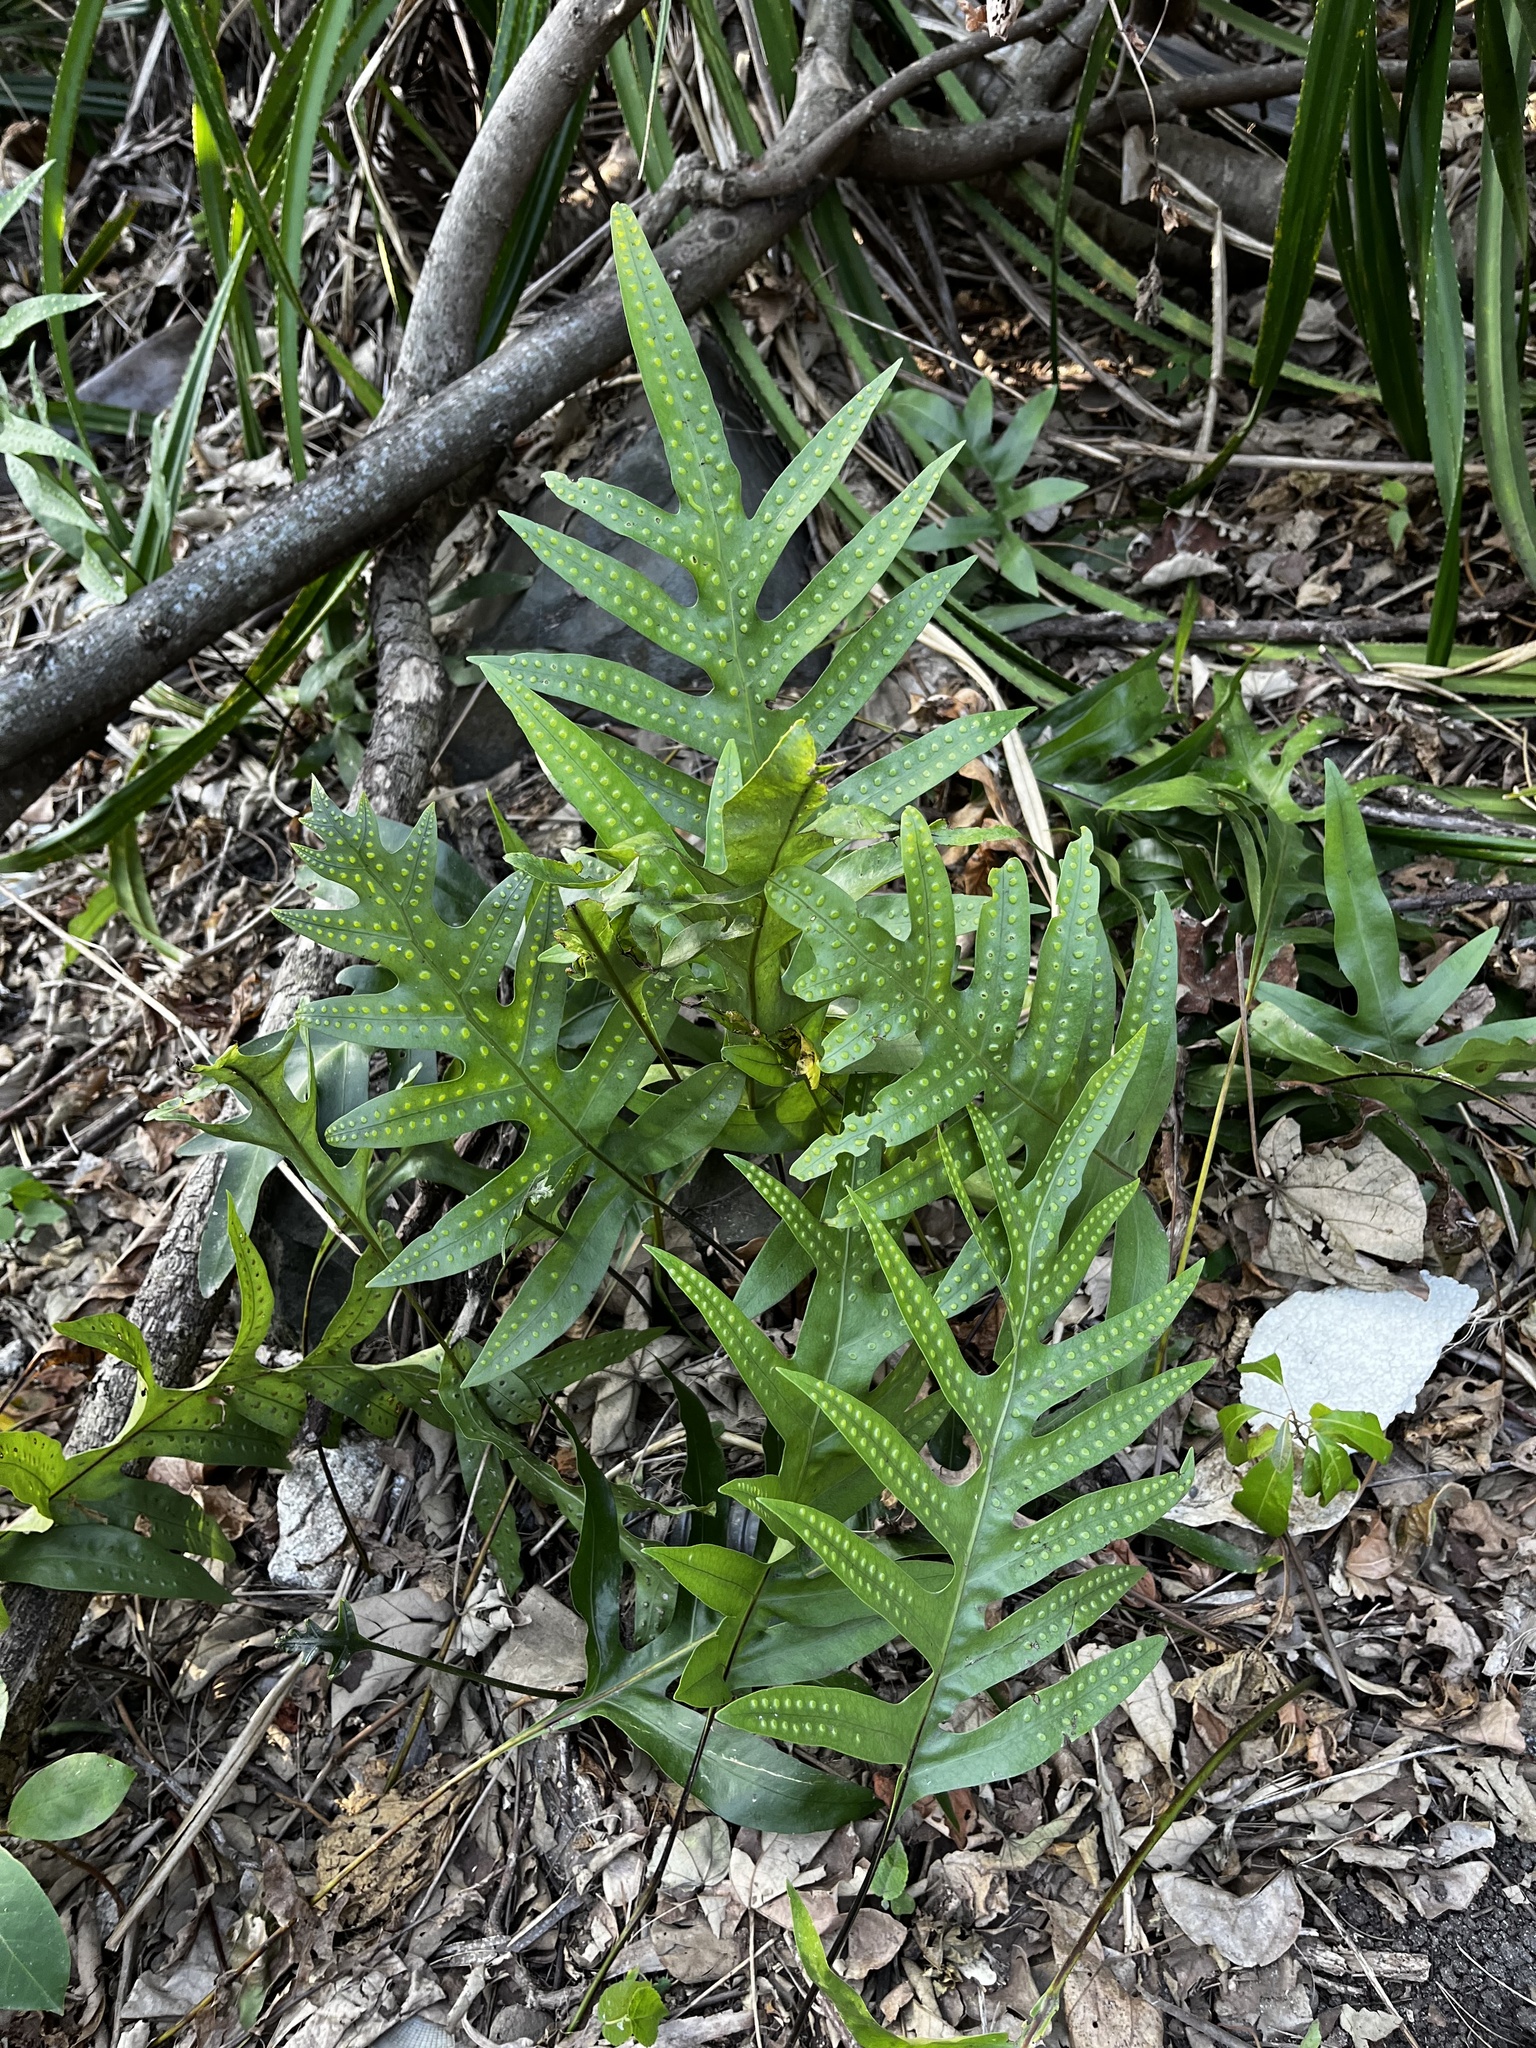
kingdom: Plantae
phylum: Tracheophyta
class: Polypodiopsida
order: Polypodiales
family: Polypodiaceae
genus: Microsorum
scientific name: Microsorum scolopendria
